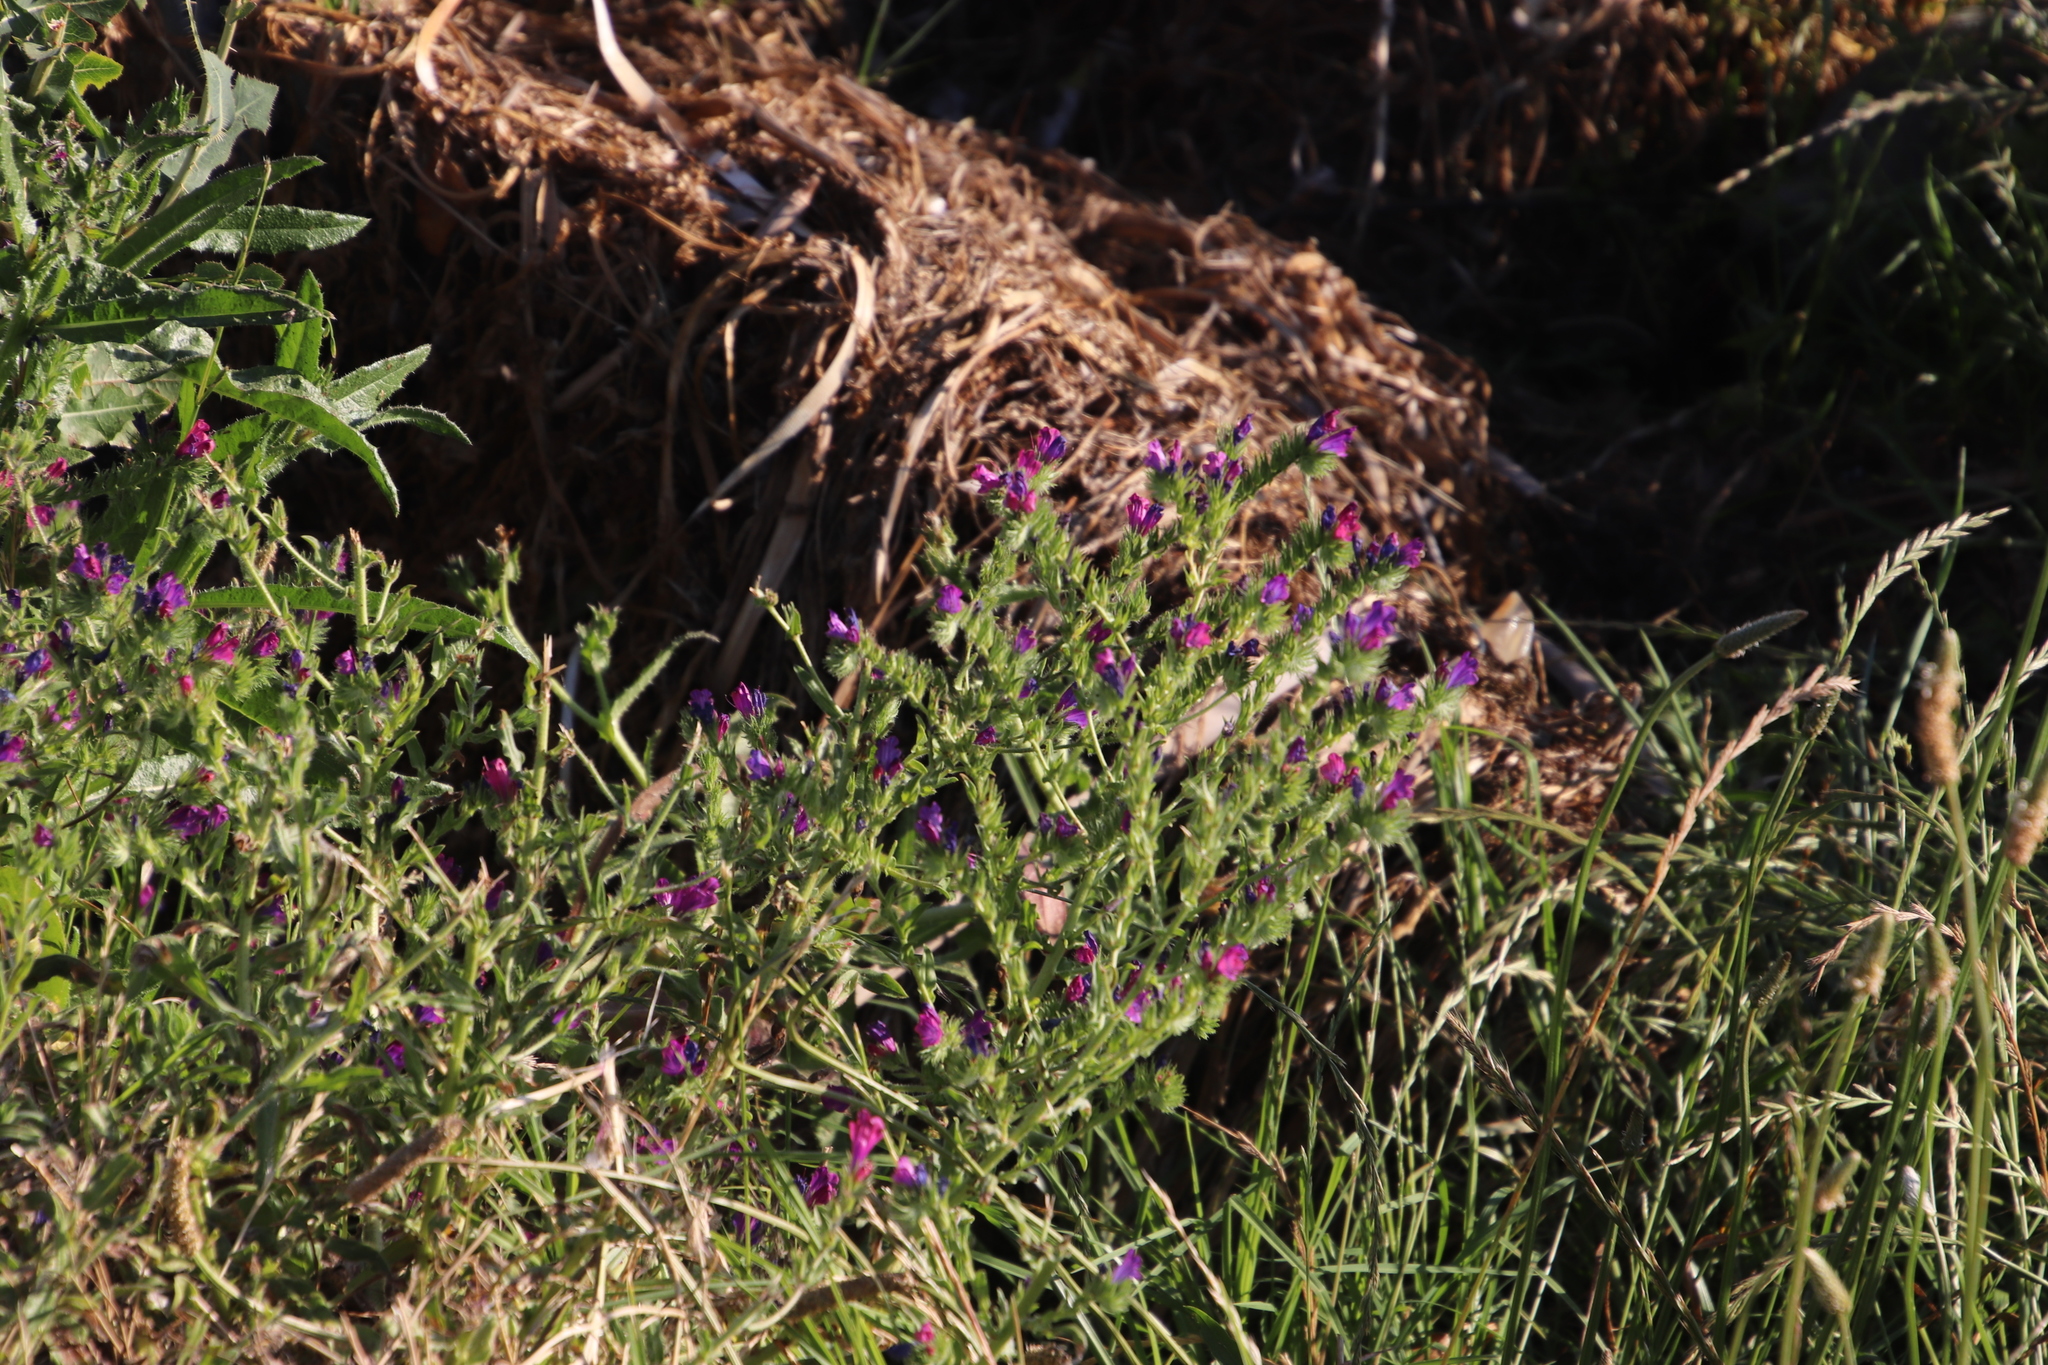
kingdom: Plantae
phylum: Tracheophyta
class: Magnoliopsida
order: Boraginales
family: Boraginaceae
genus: Echium
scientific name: Echium plantagineum
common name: Purple viper's-bugloss
